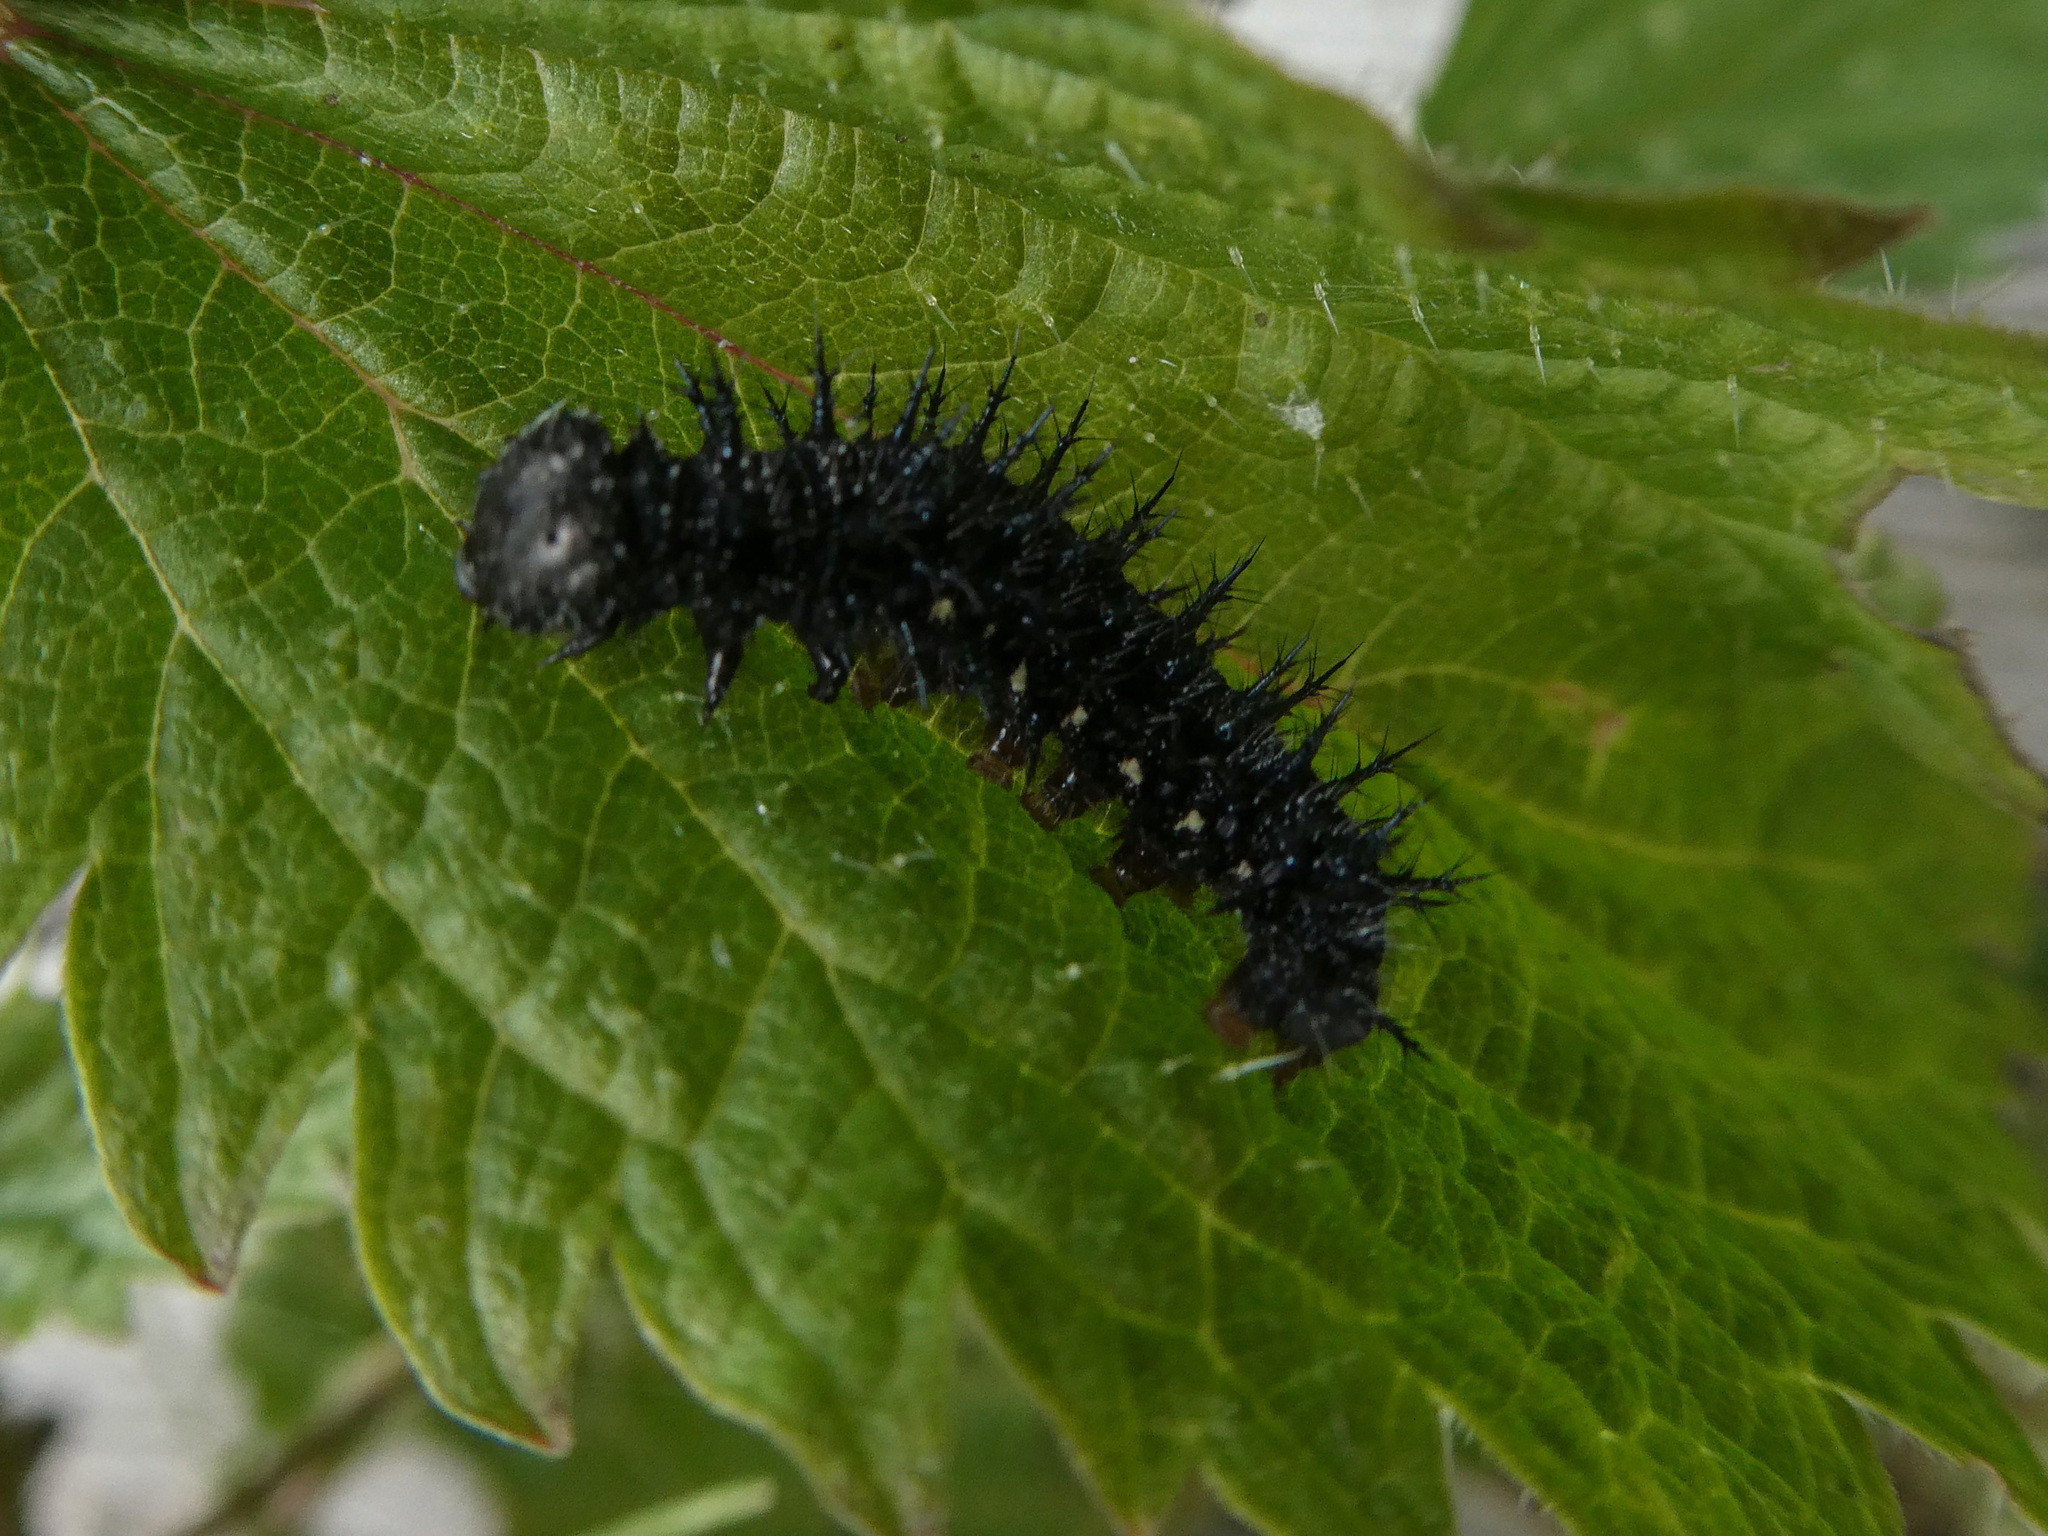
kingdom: Animalia
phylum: Arthropoda
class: Insecta
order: Lepidoptera
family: Nymphalidae
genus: Vanessa
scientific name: Vanessa atalanta
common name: Red admiral
